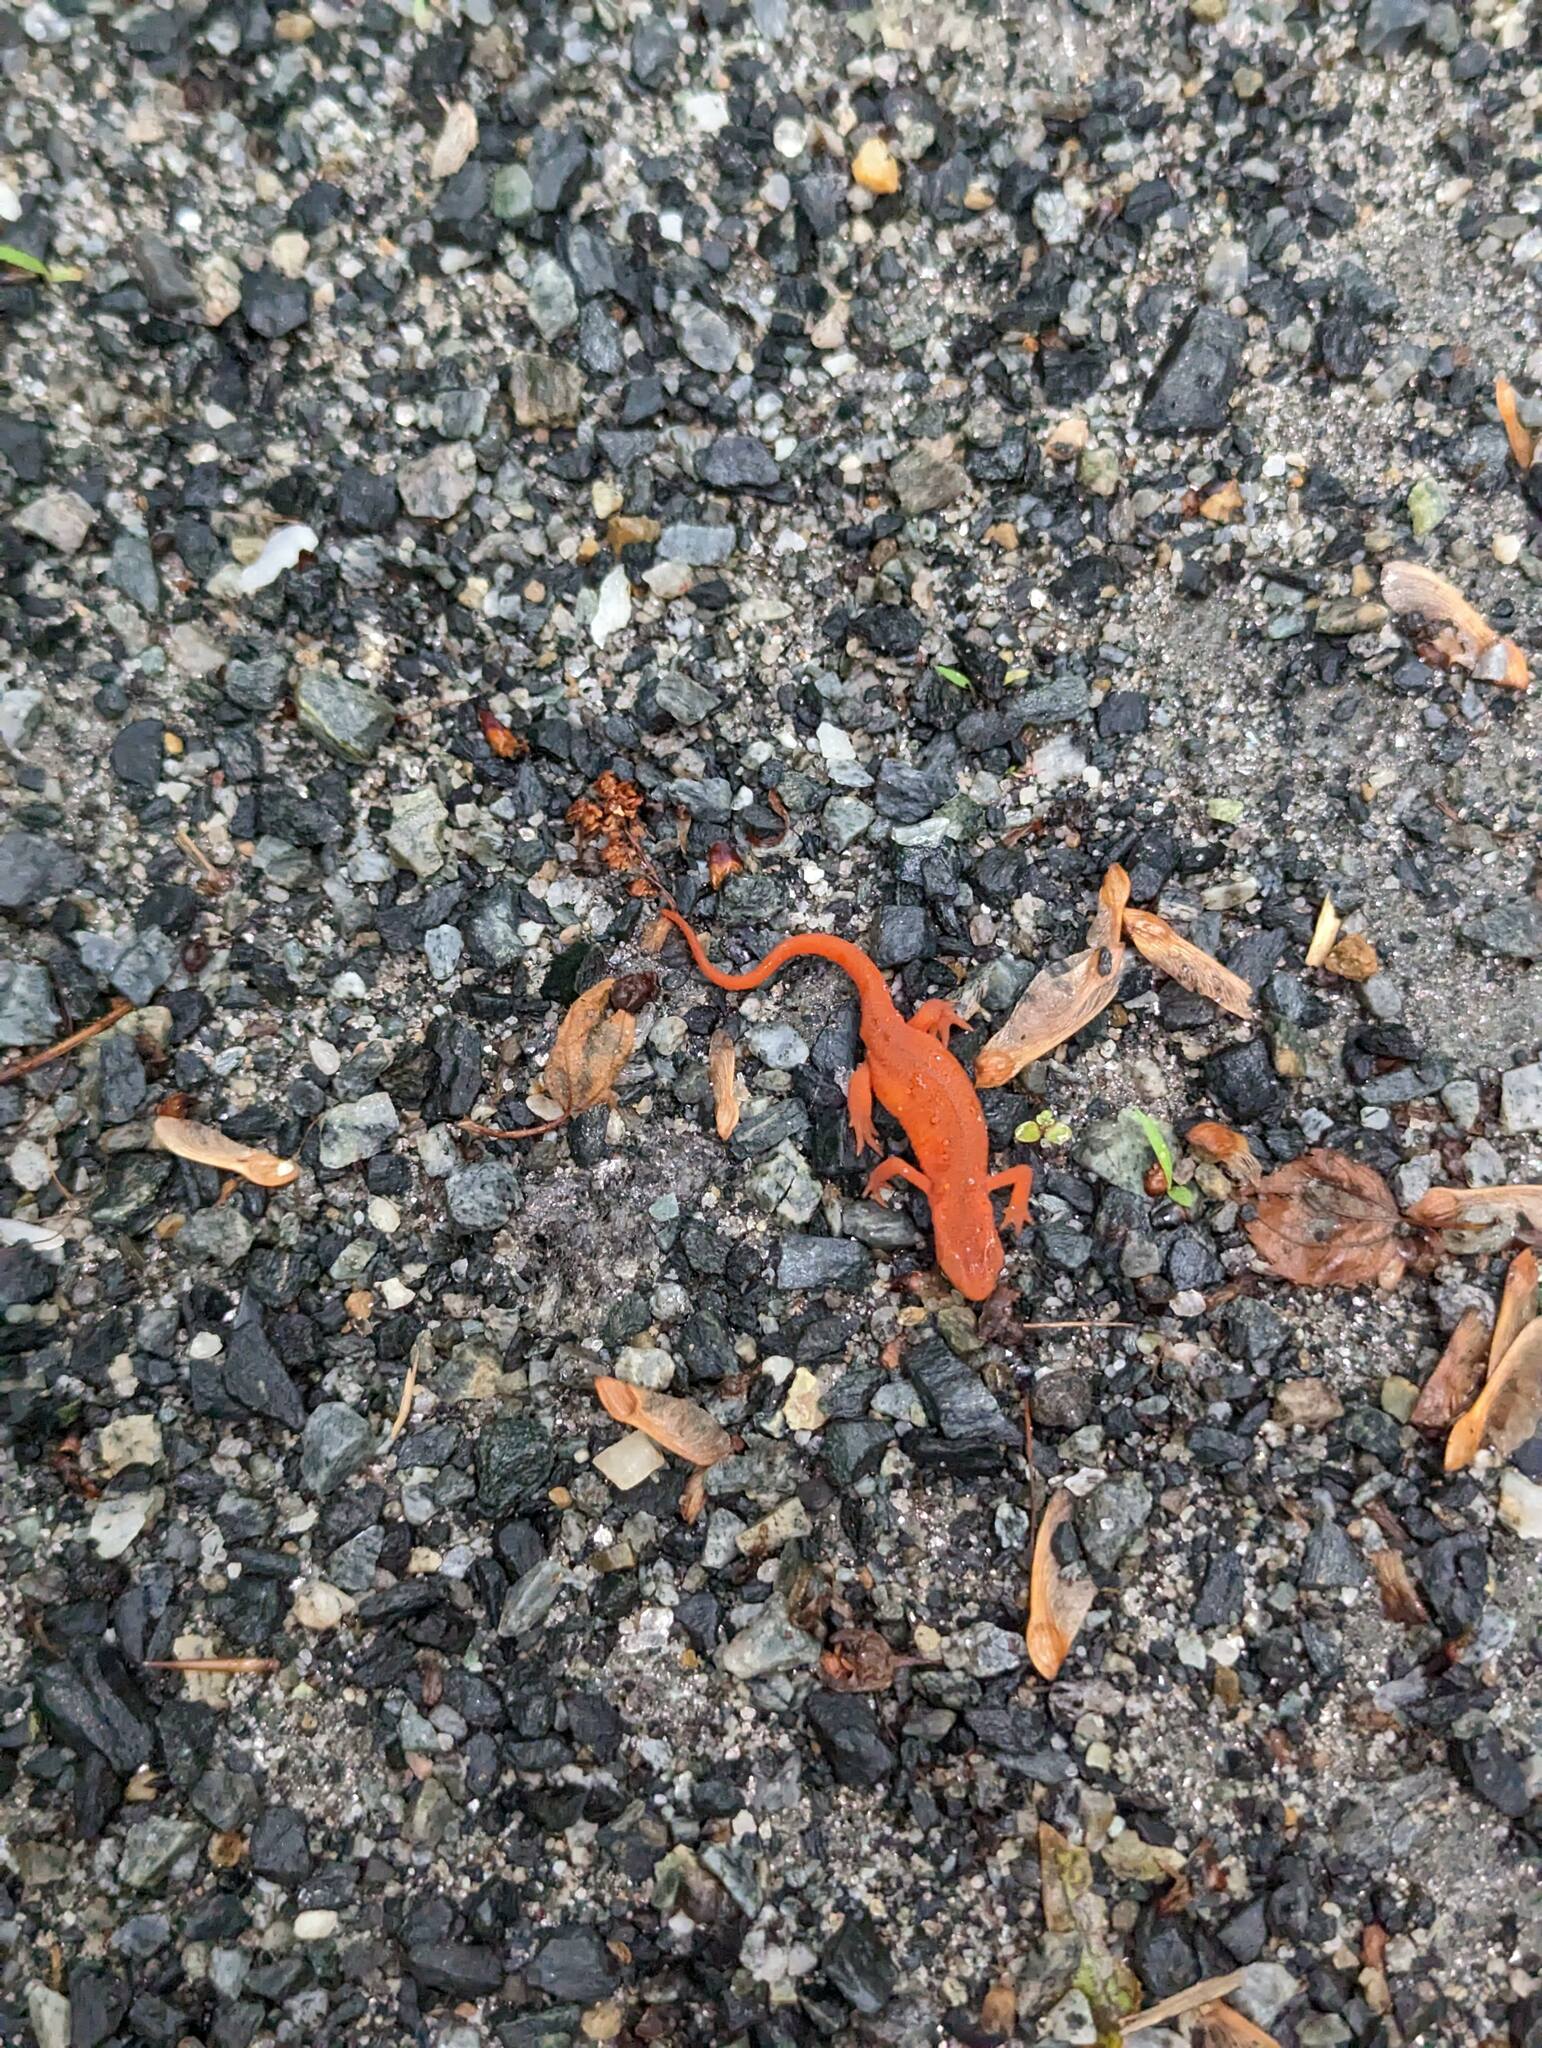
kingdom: Animalia
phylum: Chordata
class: Amphibia
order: Caudata
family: Salamandridae
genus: Notophthalmus
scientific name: Notophthalmus viridescens
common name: Eastern newt
